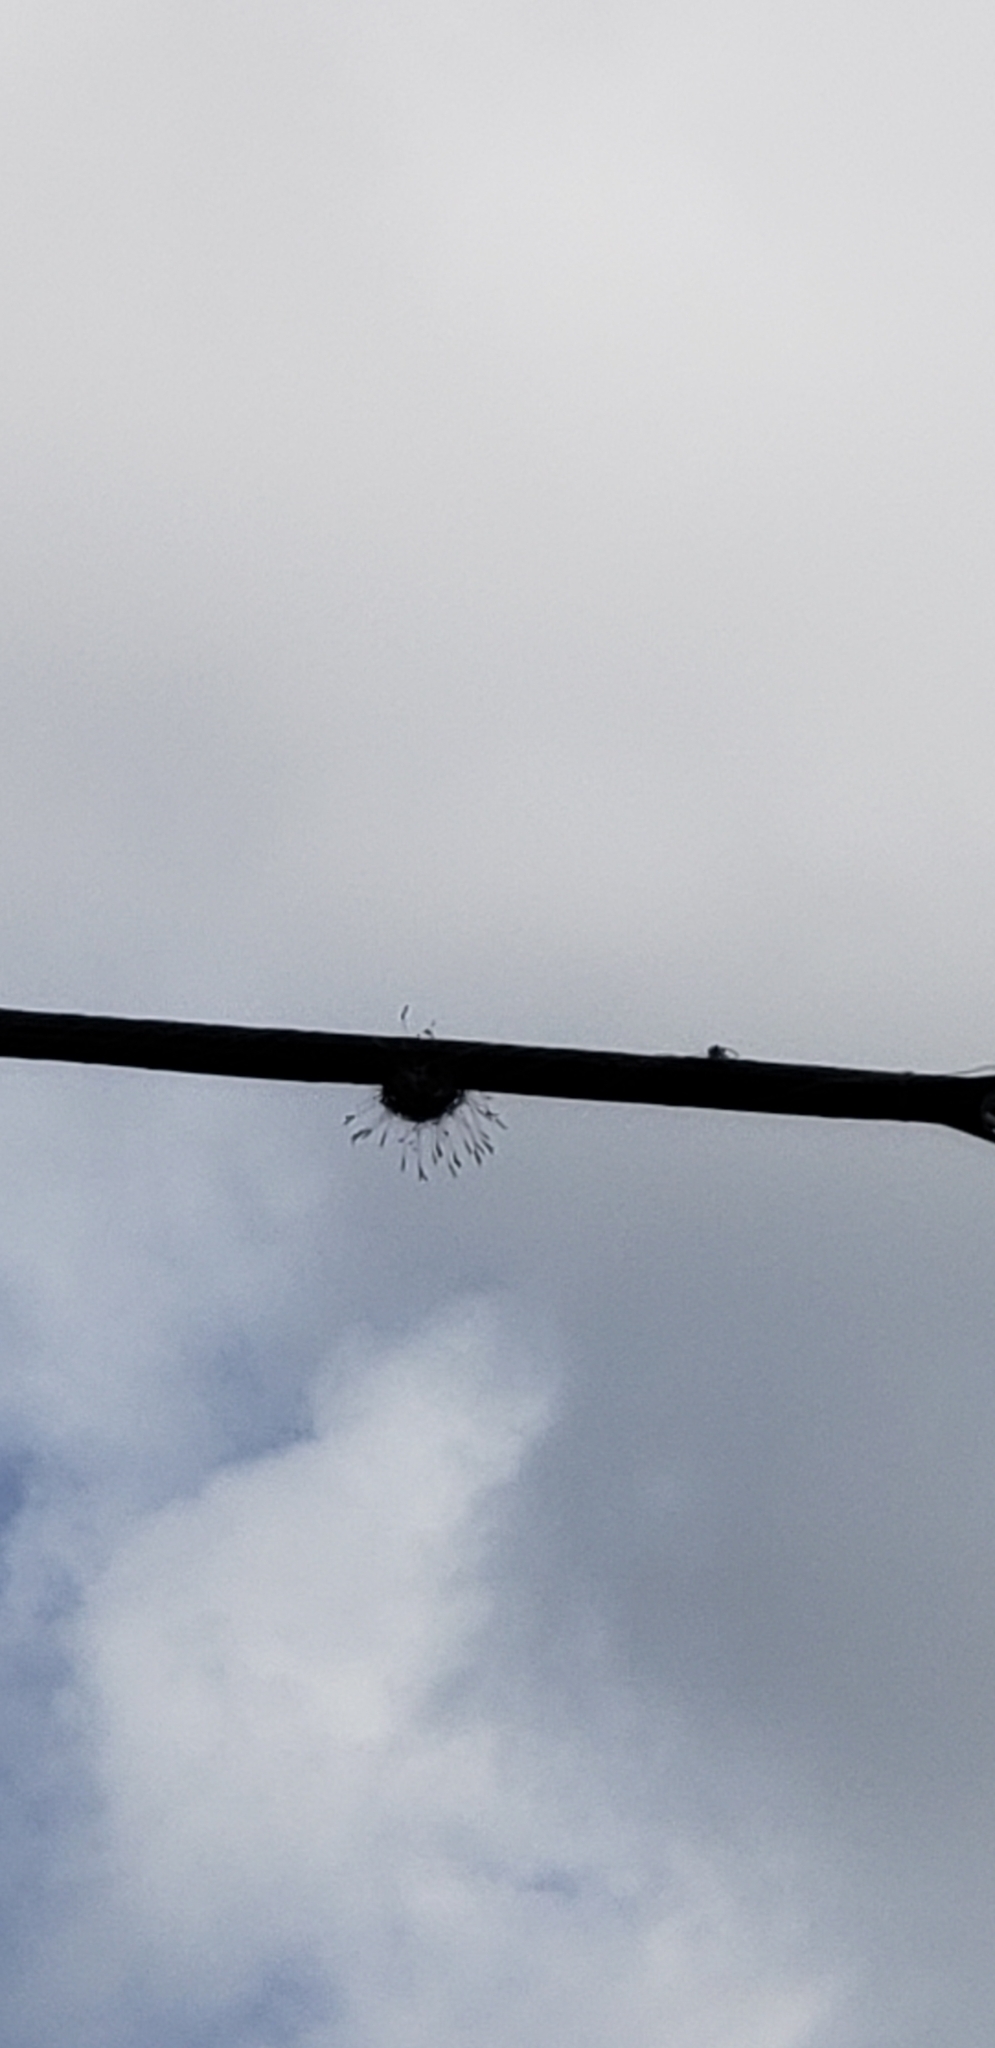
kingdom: Plantae
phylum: Tracheophyta
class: Liliopsida
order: Poales
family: Bromeliaceae
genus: Tillandsia
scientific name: Tillandsia recurvata
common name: Small ballmoss
